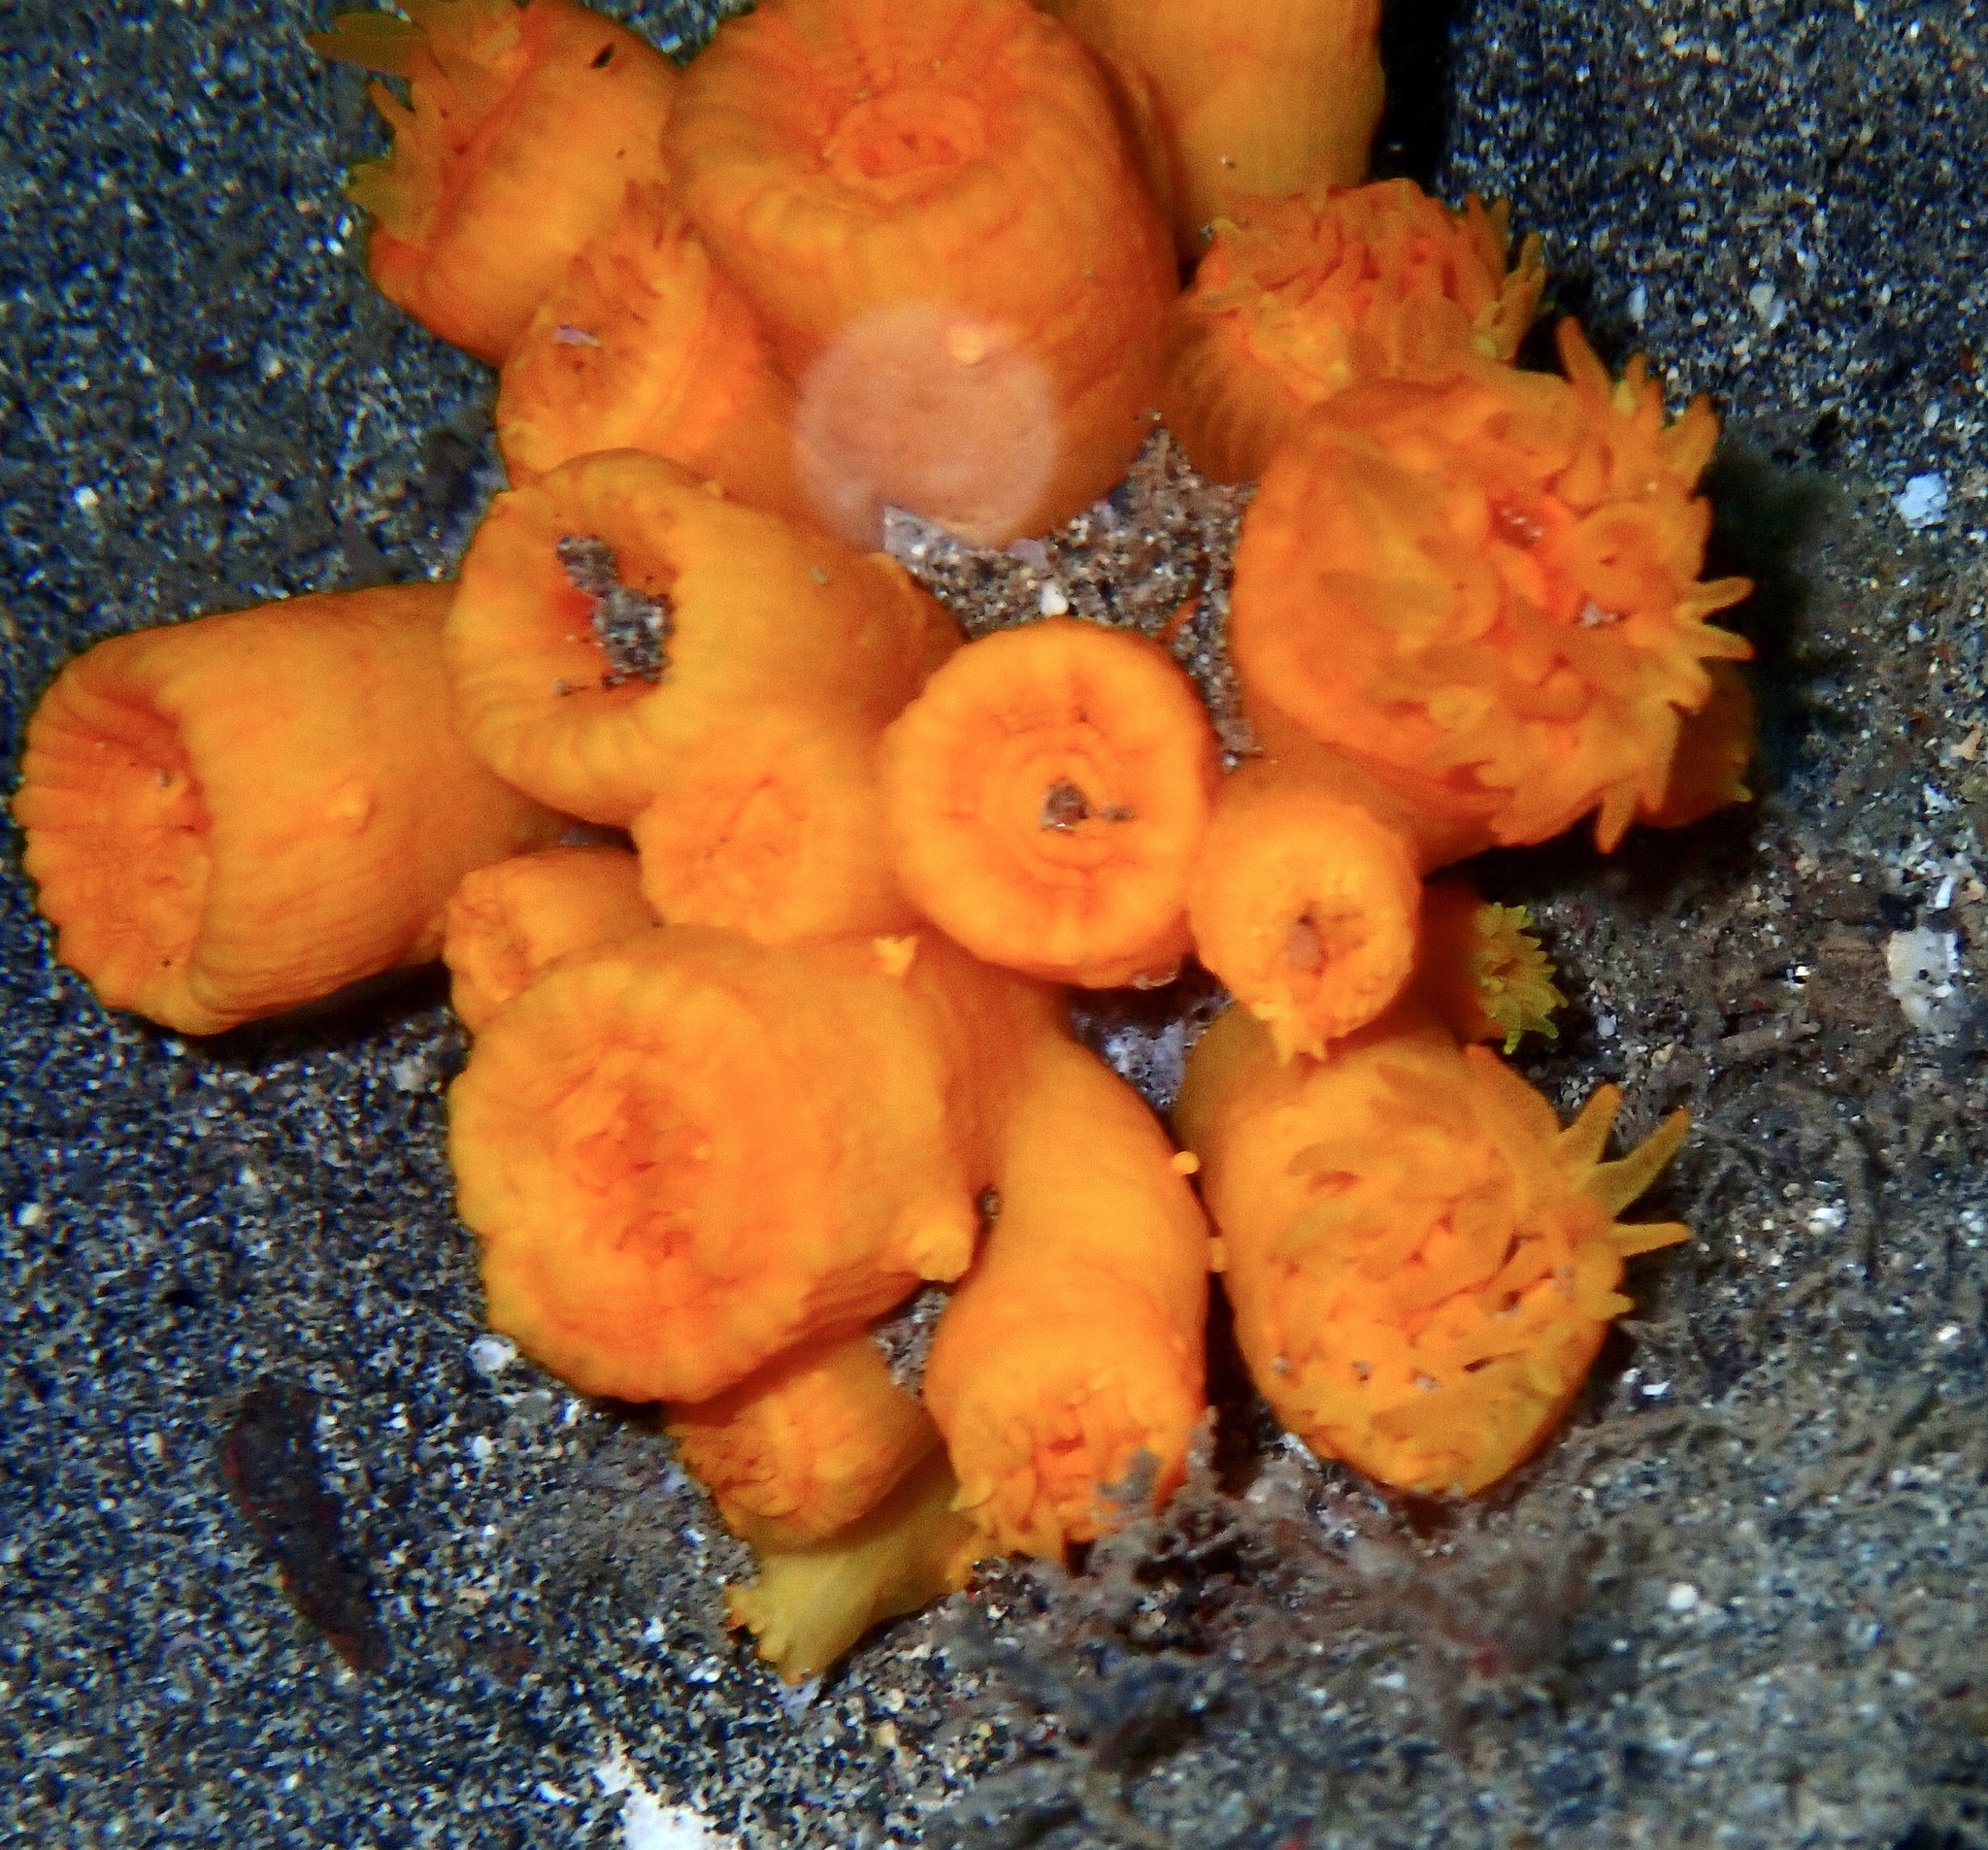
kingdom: Animalia
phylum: Cnidaria
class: Anthozoa
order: Scleractinia
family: Dendrophylliidae
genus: Atlantia
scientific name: Atlantia caboverdiana
